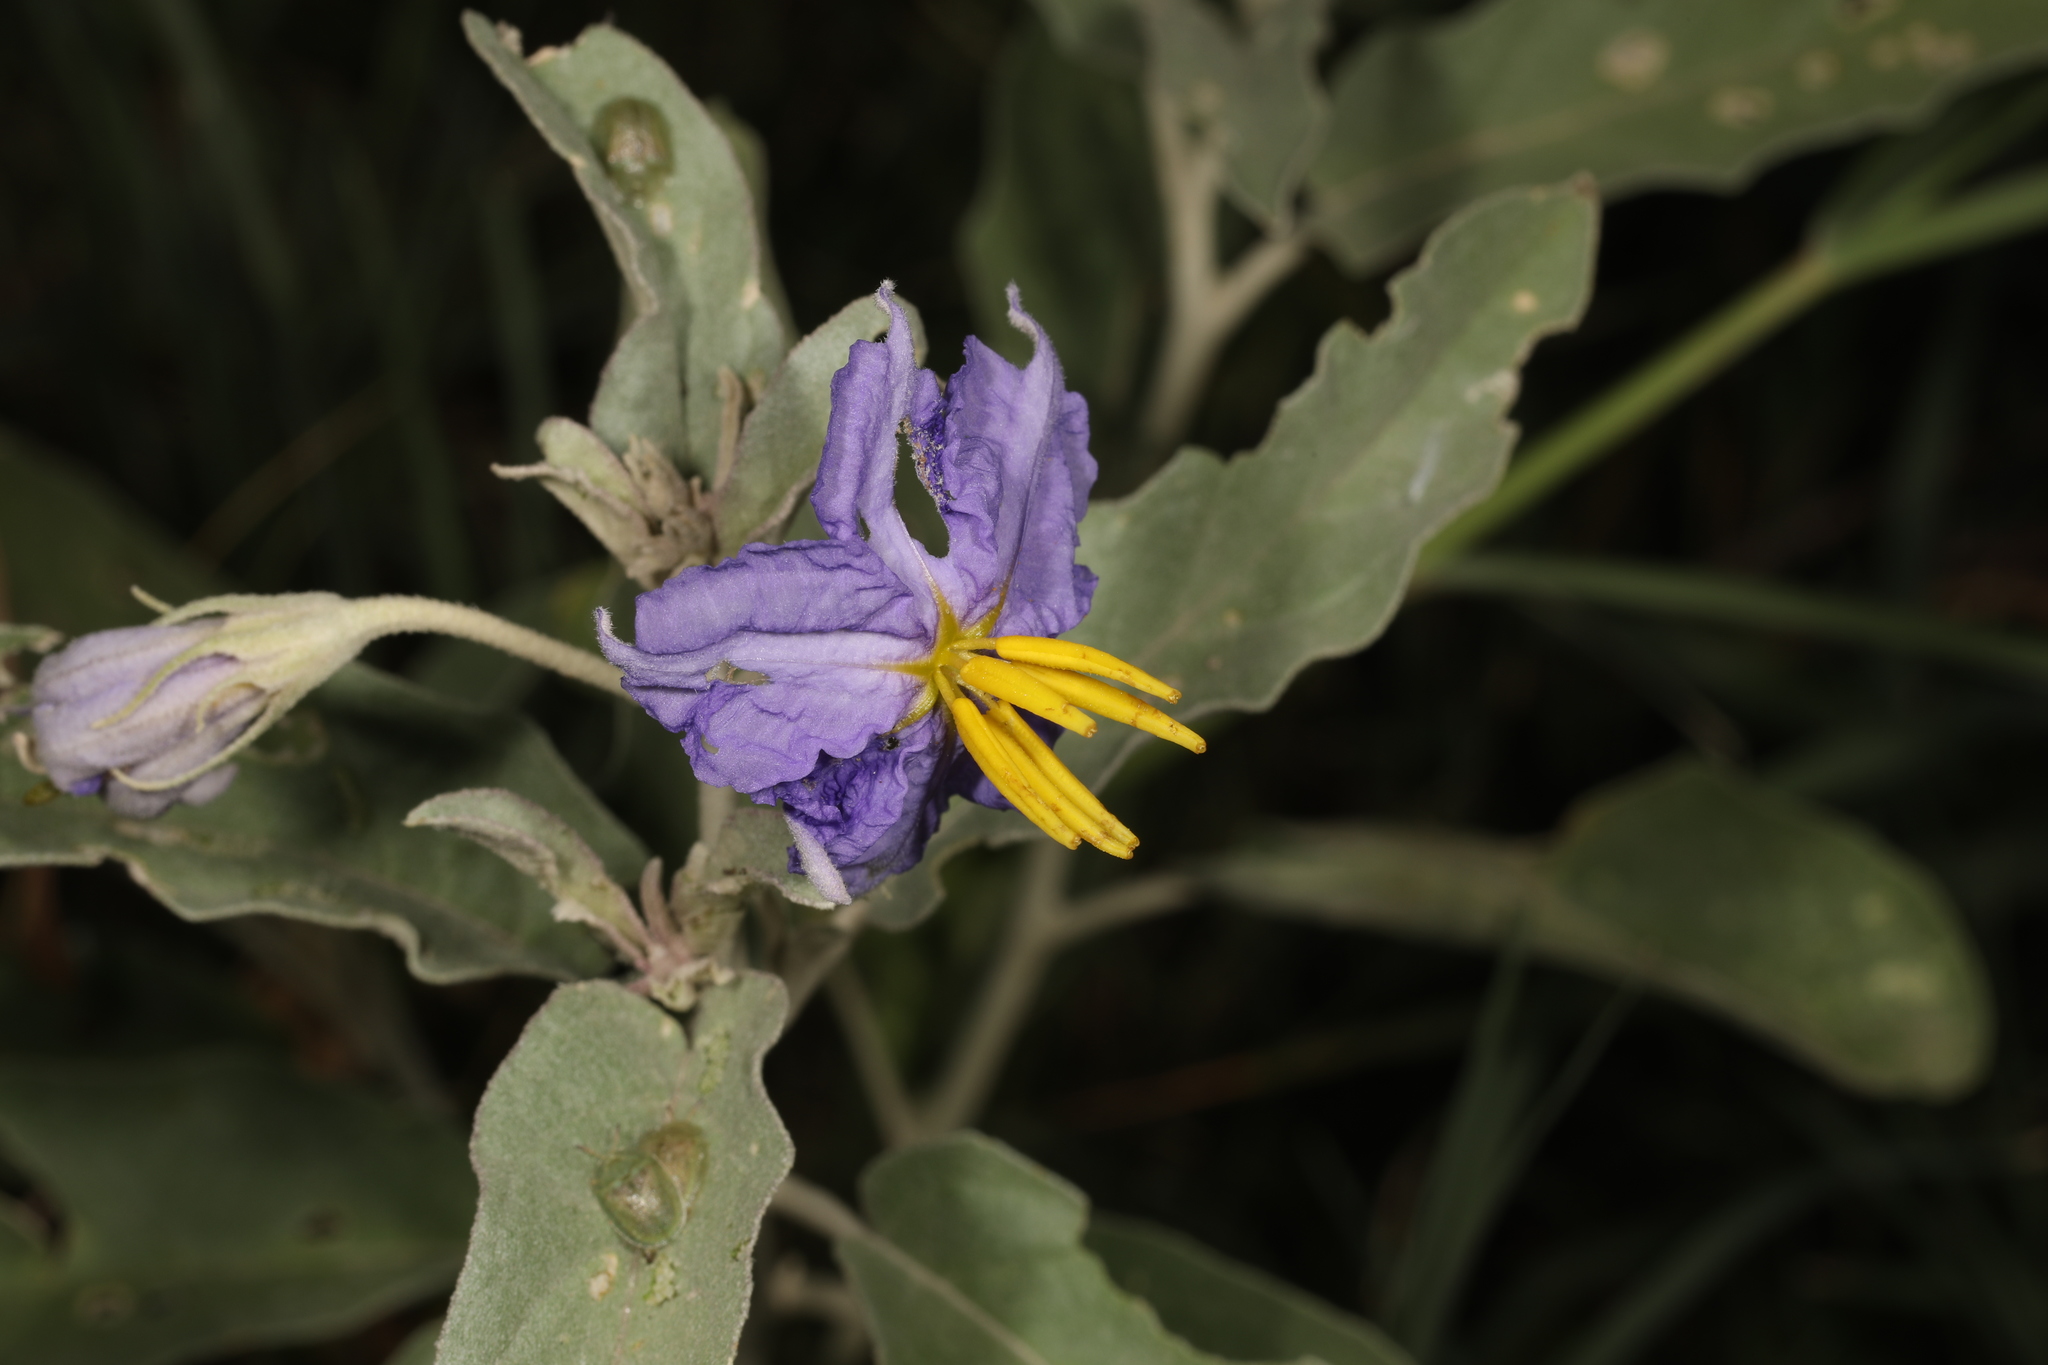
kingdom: Plantae
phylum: Tracheophyta
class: Magnoliopsida
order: Solanales
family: Solanaceae
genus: Solanum
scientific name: Solanum elaeagnifolium
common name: Silverleaf nightshade
